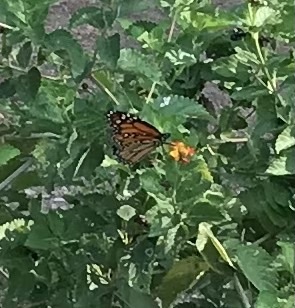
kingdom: Animalia
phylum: Arthropoda
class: Insecta
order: Lepidoptera
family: Nymphalidae
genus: Danaus
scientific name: Danaus plexippus
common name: Monarch
